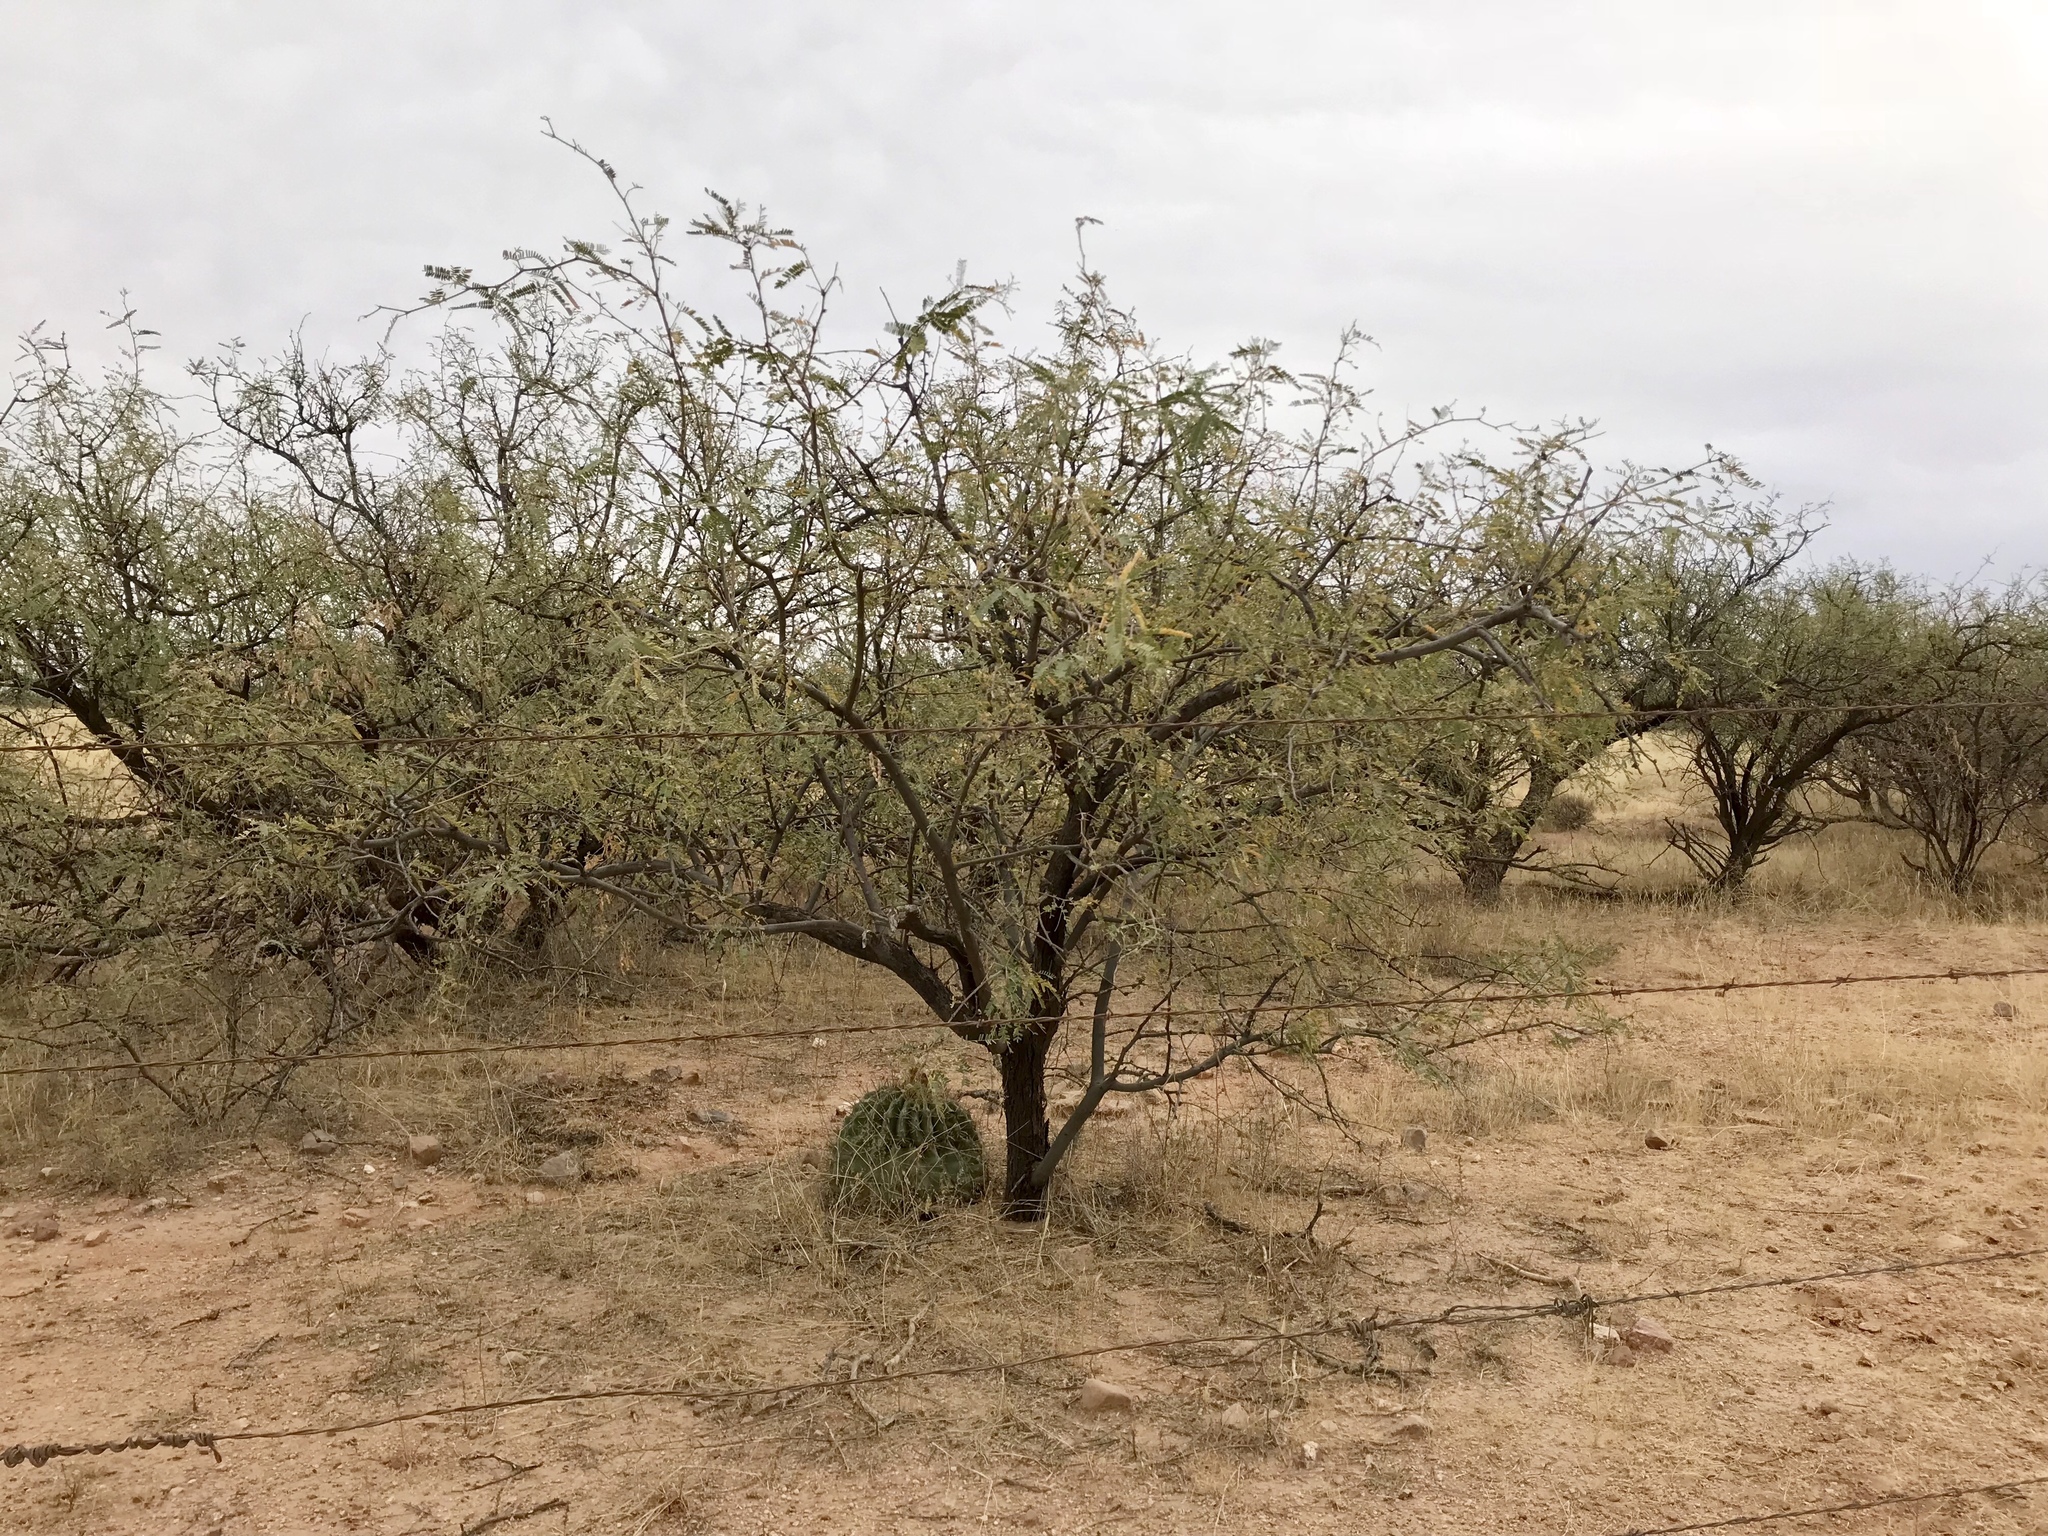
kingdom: Plantae
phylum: Tracheophyta
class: Magnoliopsida
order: Fabales
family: Fabaceae
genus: Prosopis
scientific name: Prosopis velutina
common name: Velvet mesquite
